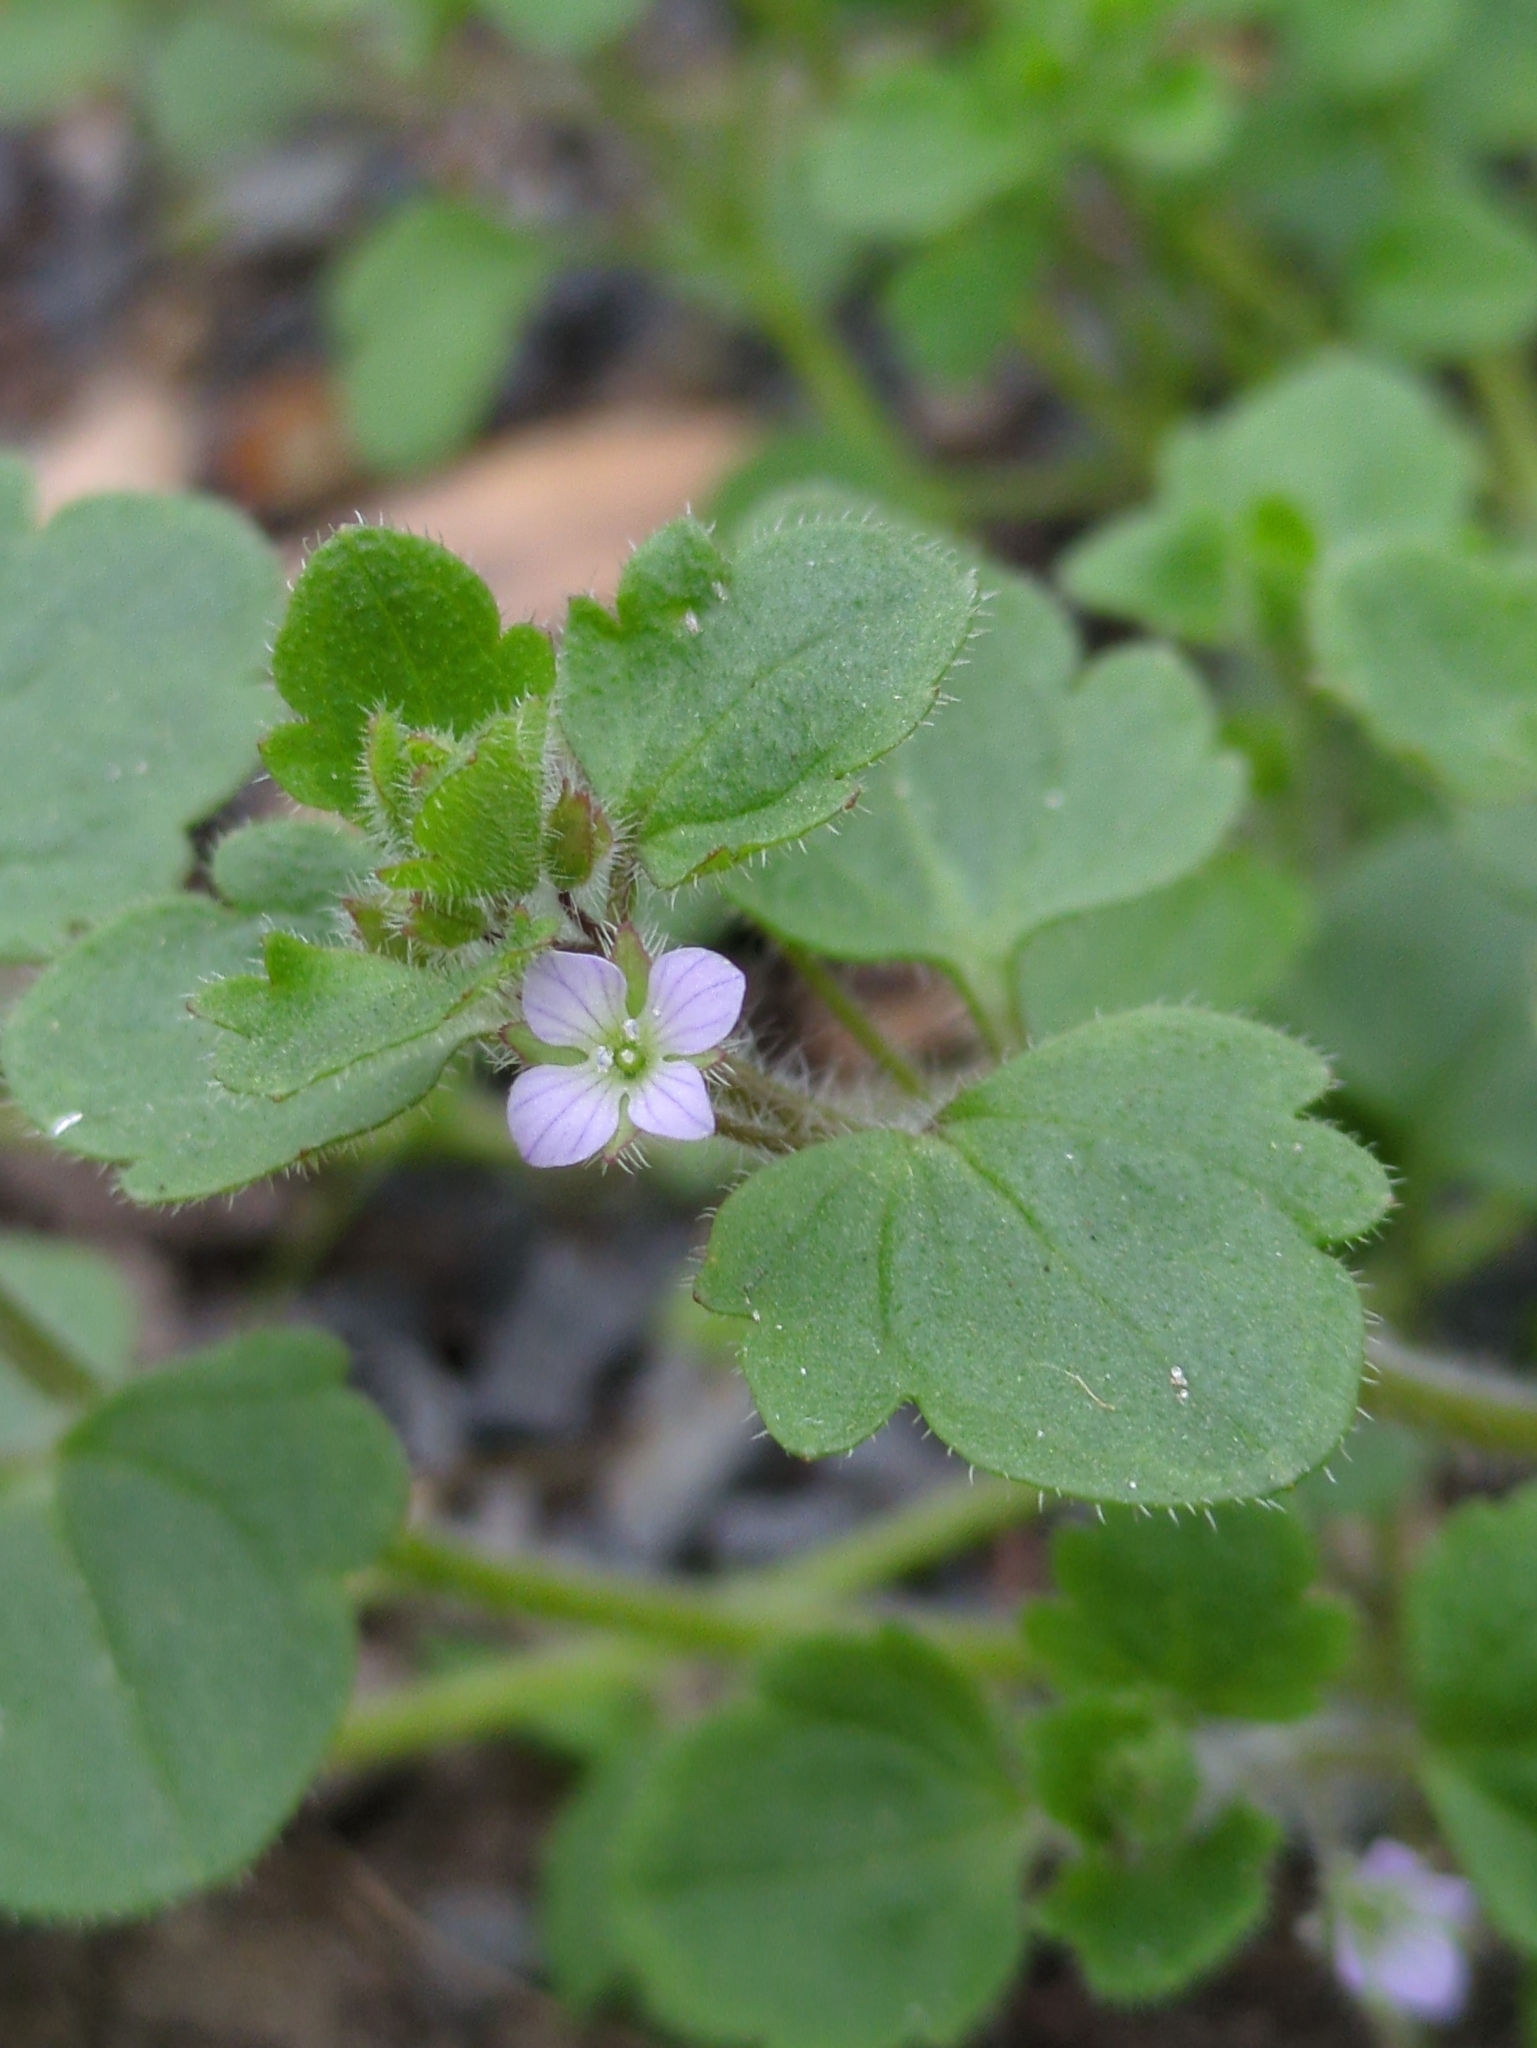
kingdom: Plantae
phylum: Tracheophyta
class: Magnoliopsida
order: Lamiales
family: Plantaginaceae
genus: Veronica
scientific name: Veronica sublobata
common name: False ivy-leaved speedwell
